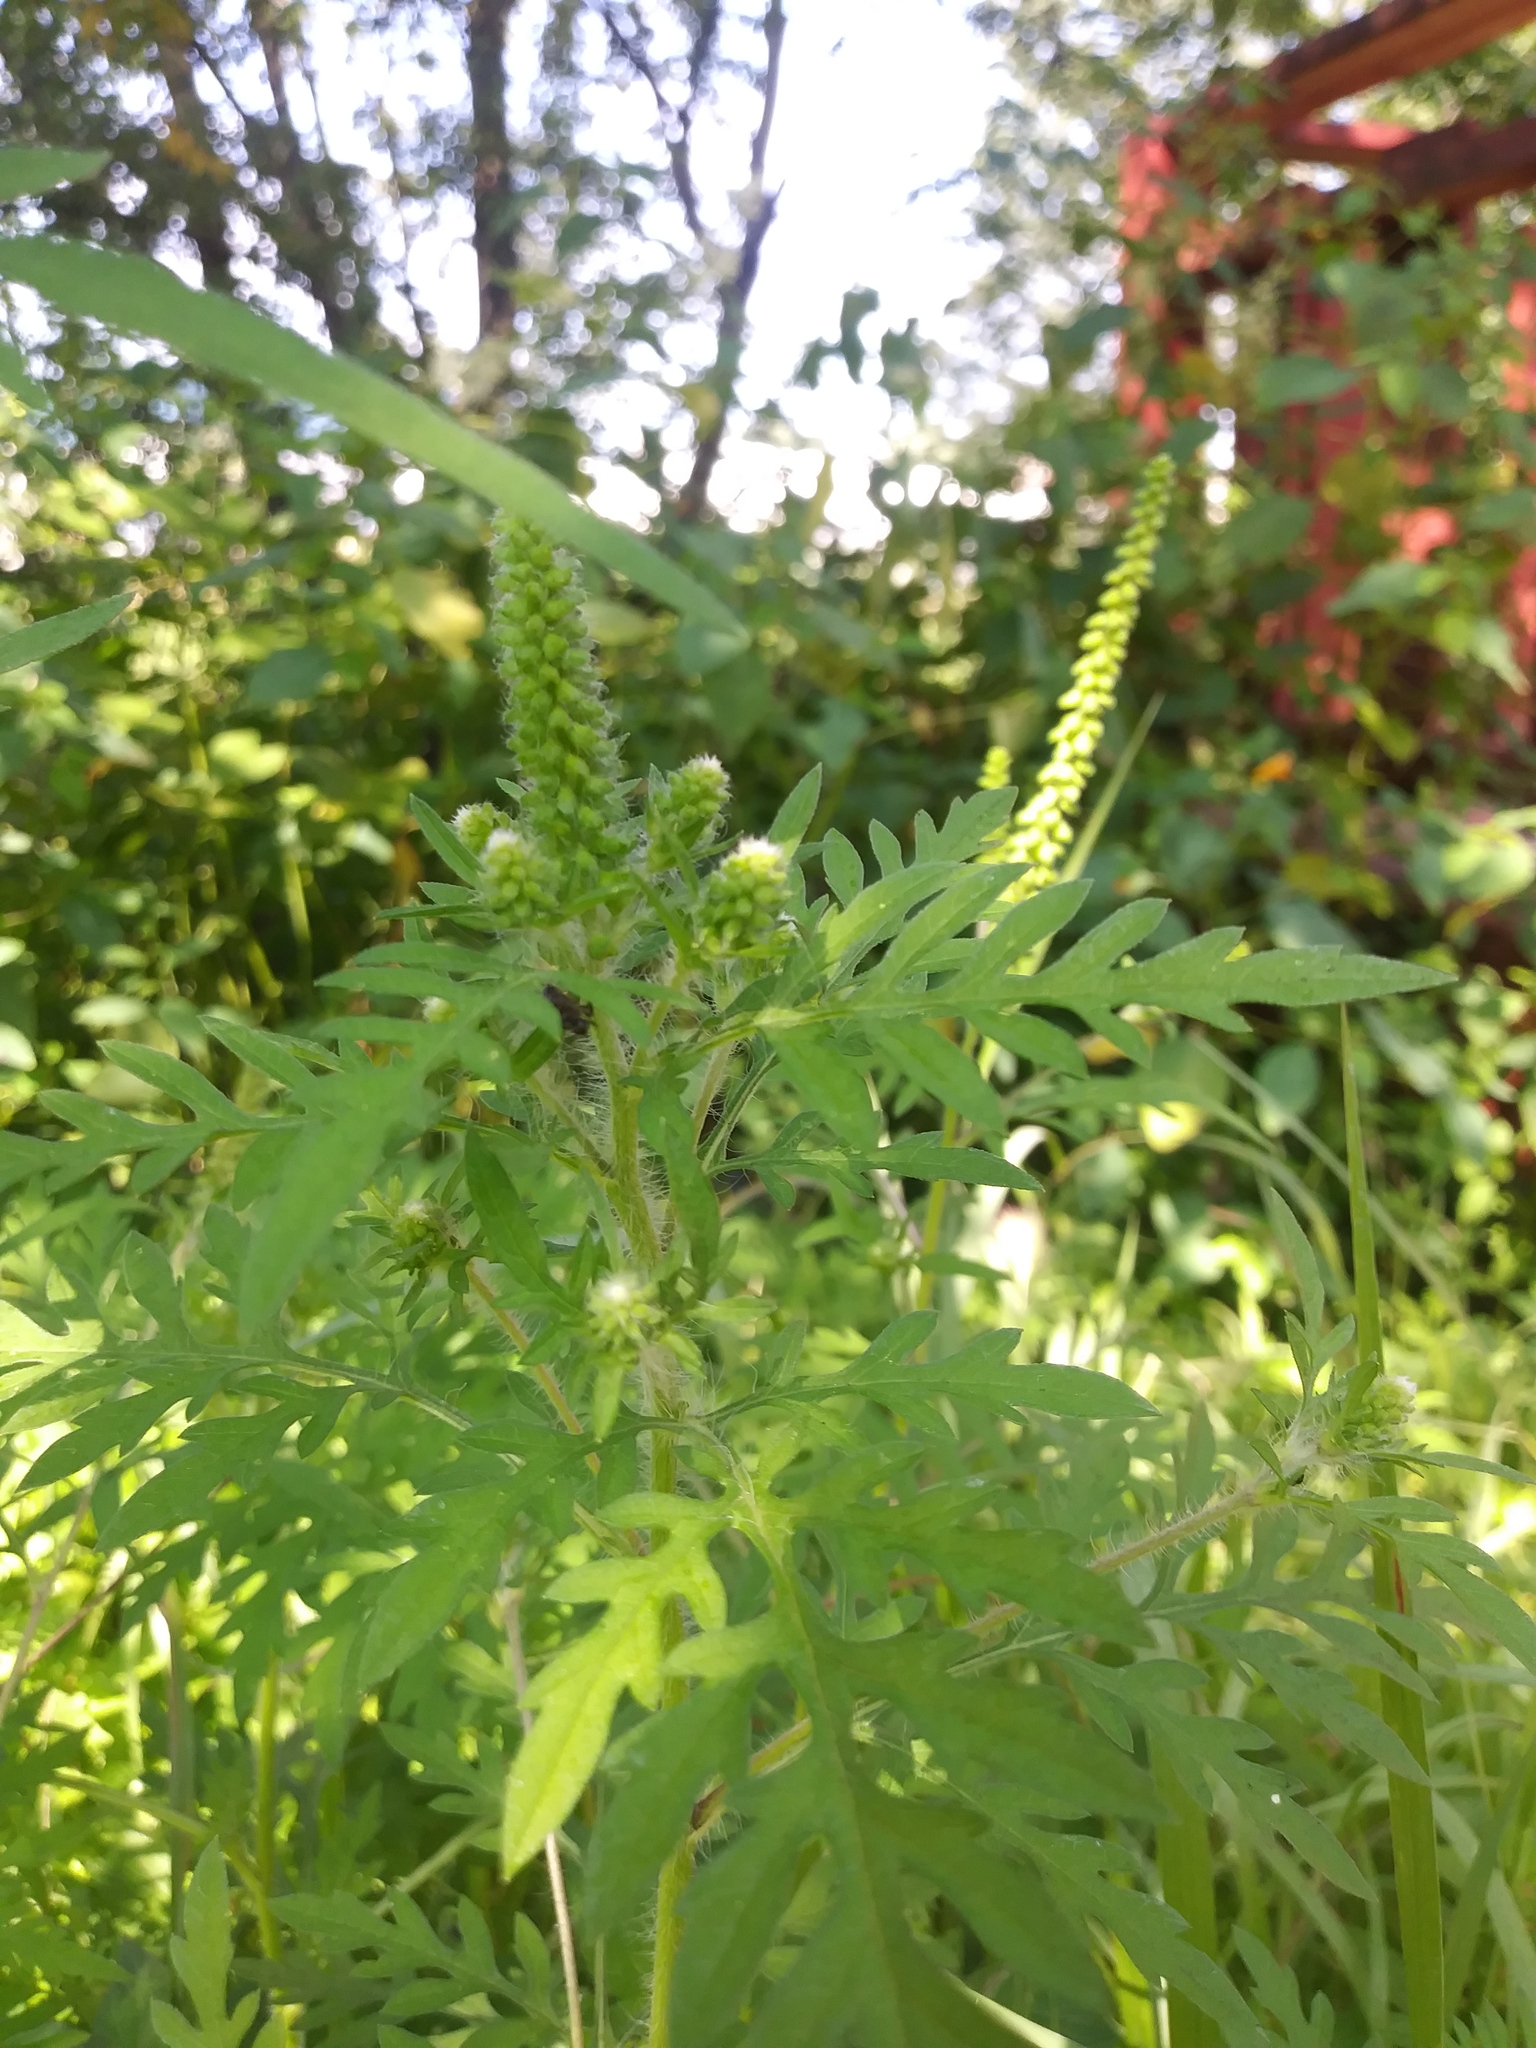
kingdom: Plantae
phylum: Tracheophyta
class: Magnoliopsida
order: Asterales
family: Asteraceae
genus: Ambrosia
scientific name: Ambrosia artemisiifolia
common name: Annual ragweed
